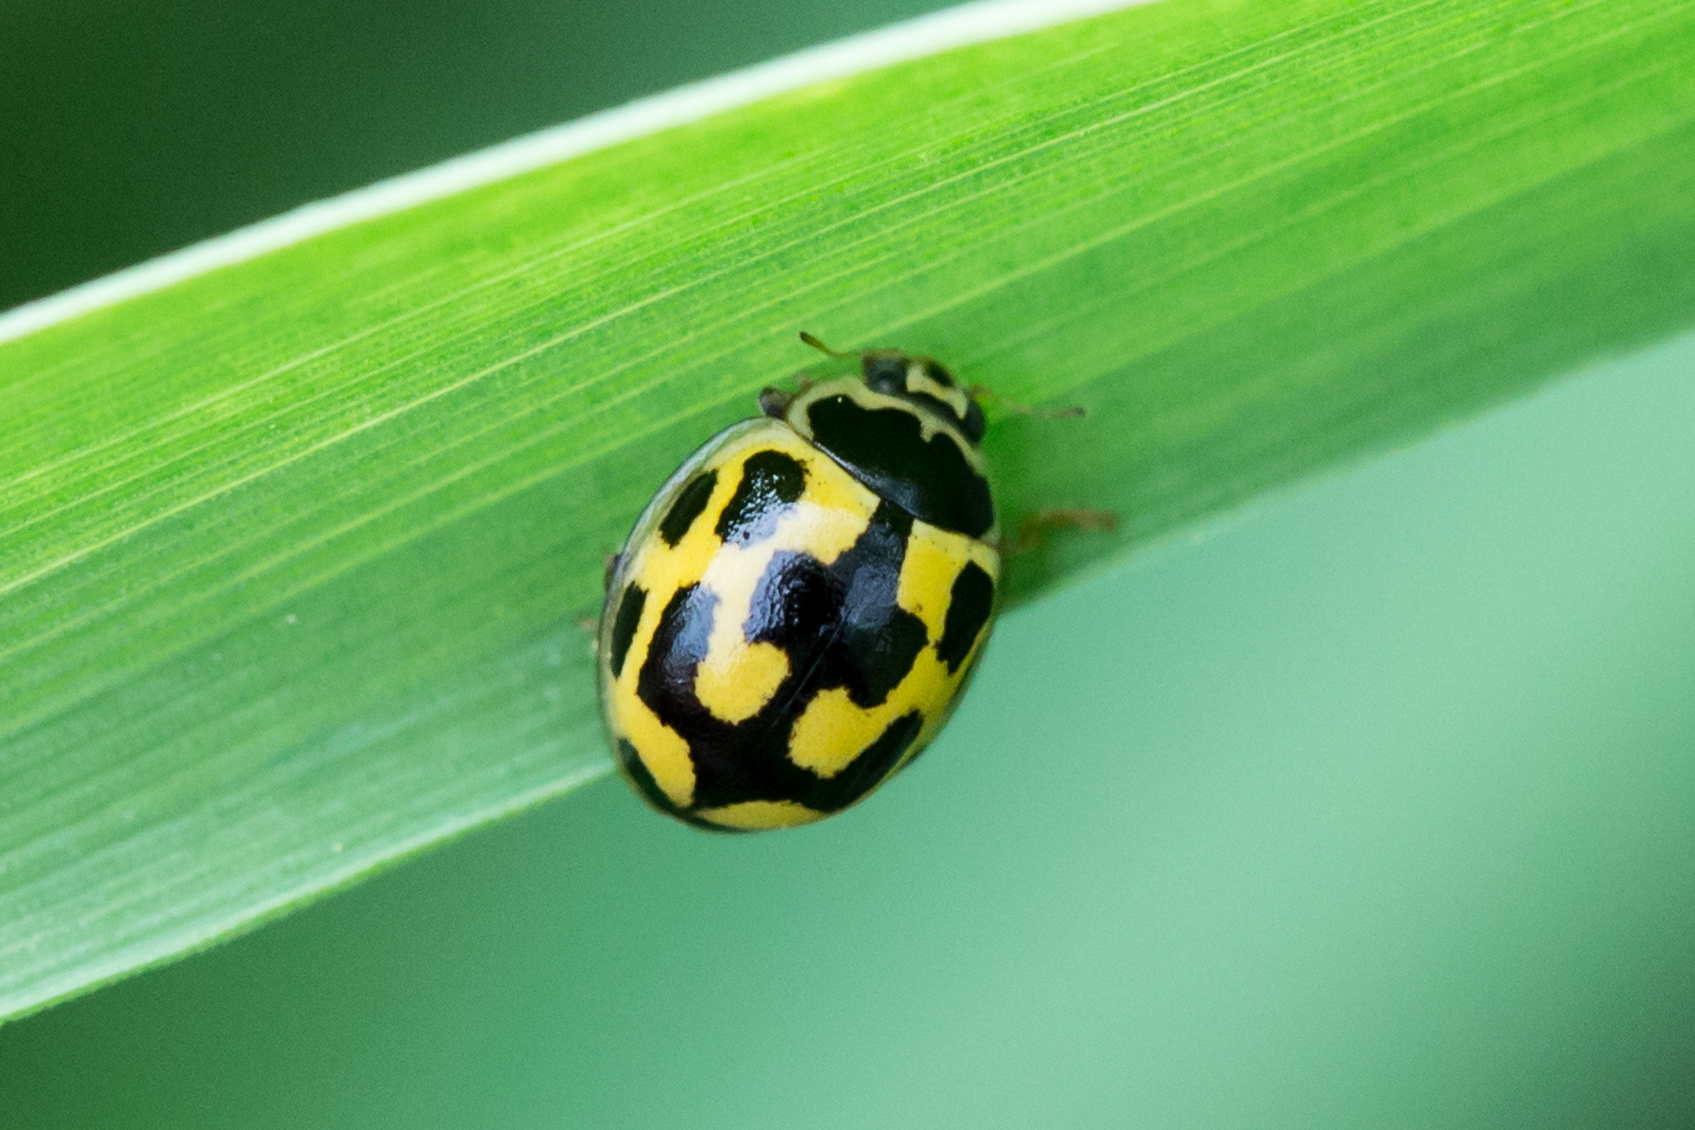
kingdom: Animalia
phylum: Arthropoda
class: Insecta
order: Coleoptera
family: Coccinellidae
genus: Propylaea
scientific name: Propylaea quatuordecimpunctata
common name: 14-spotted ladybird beetle
